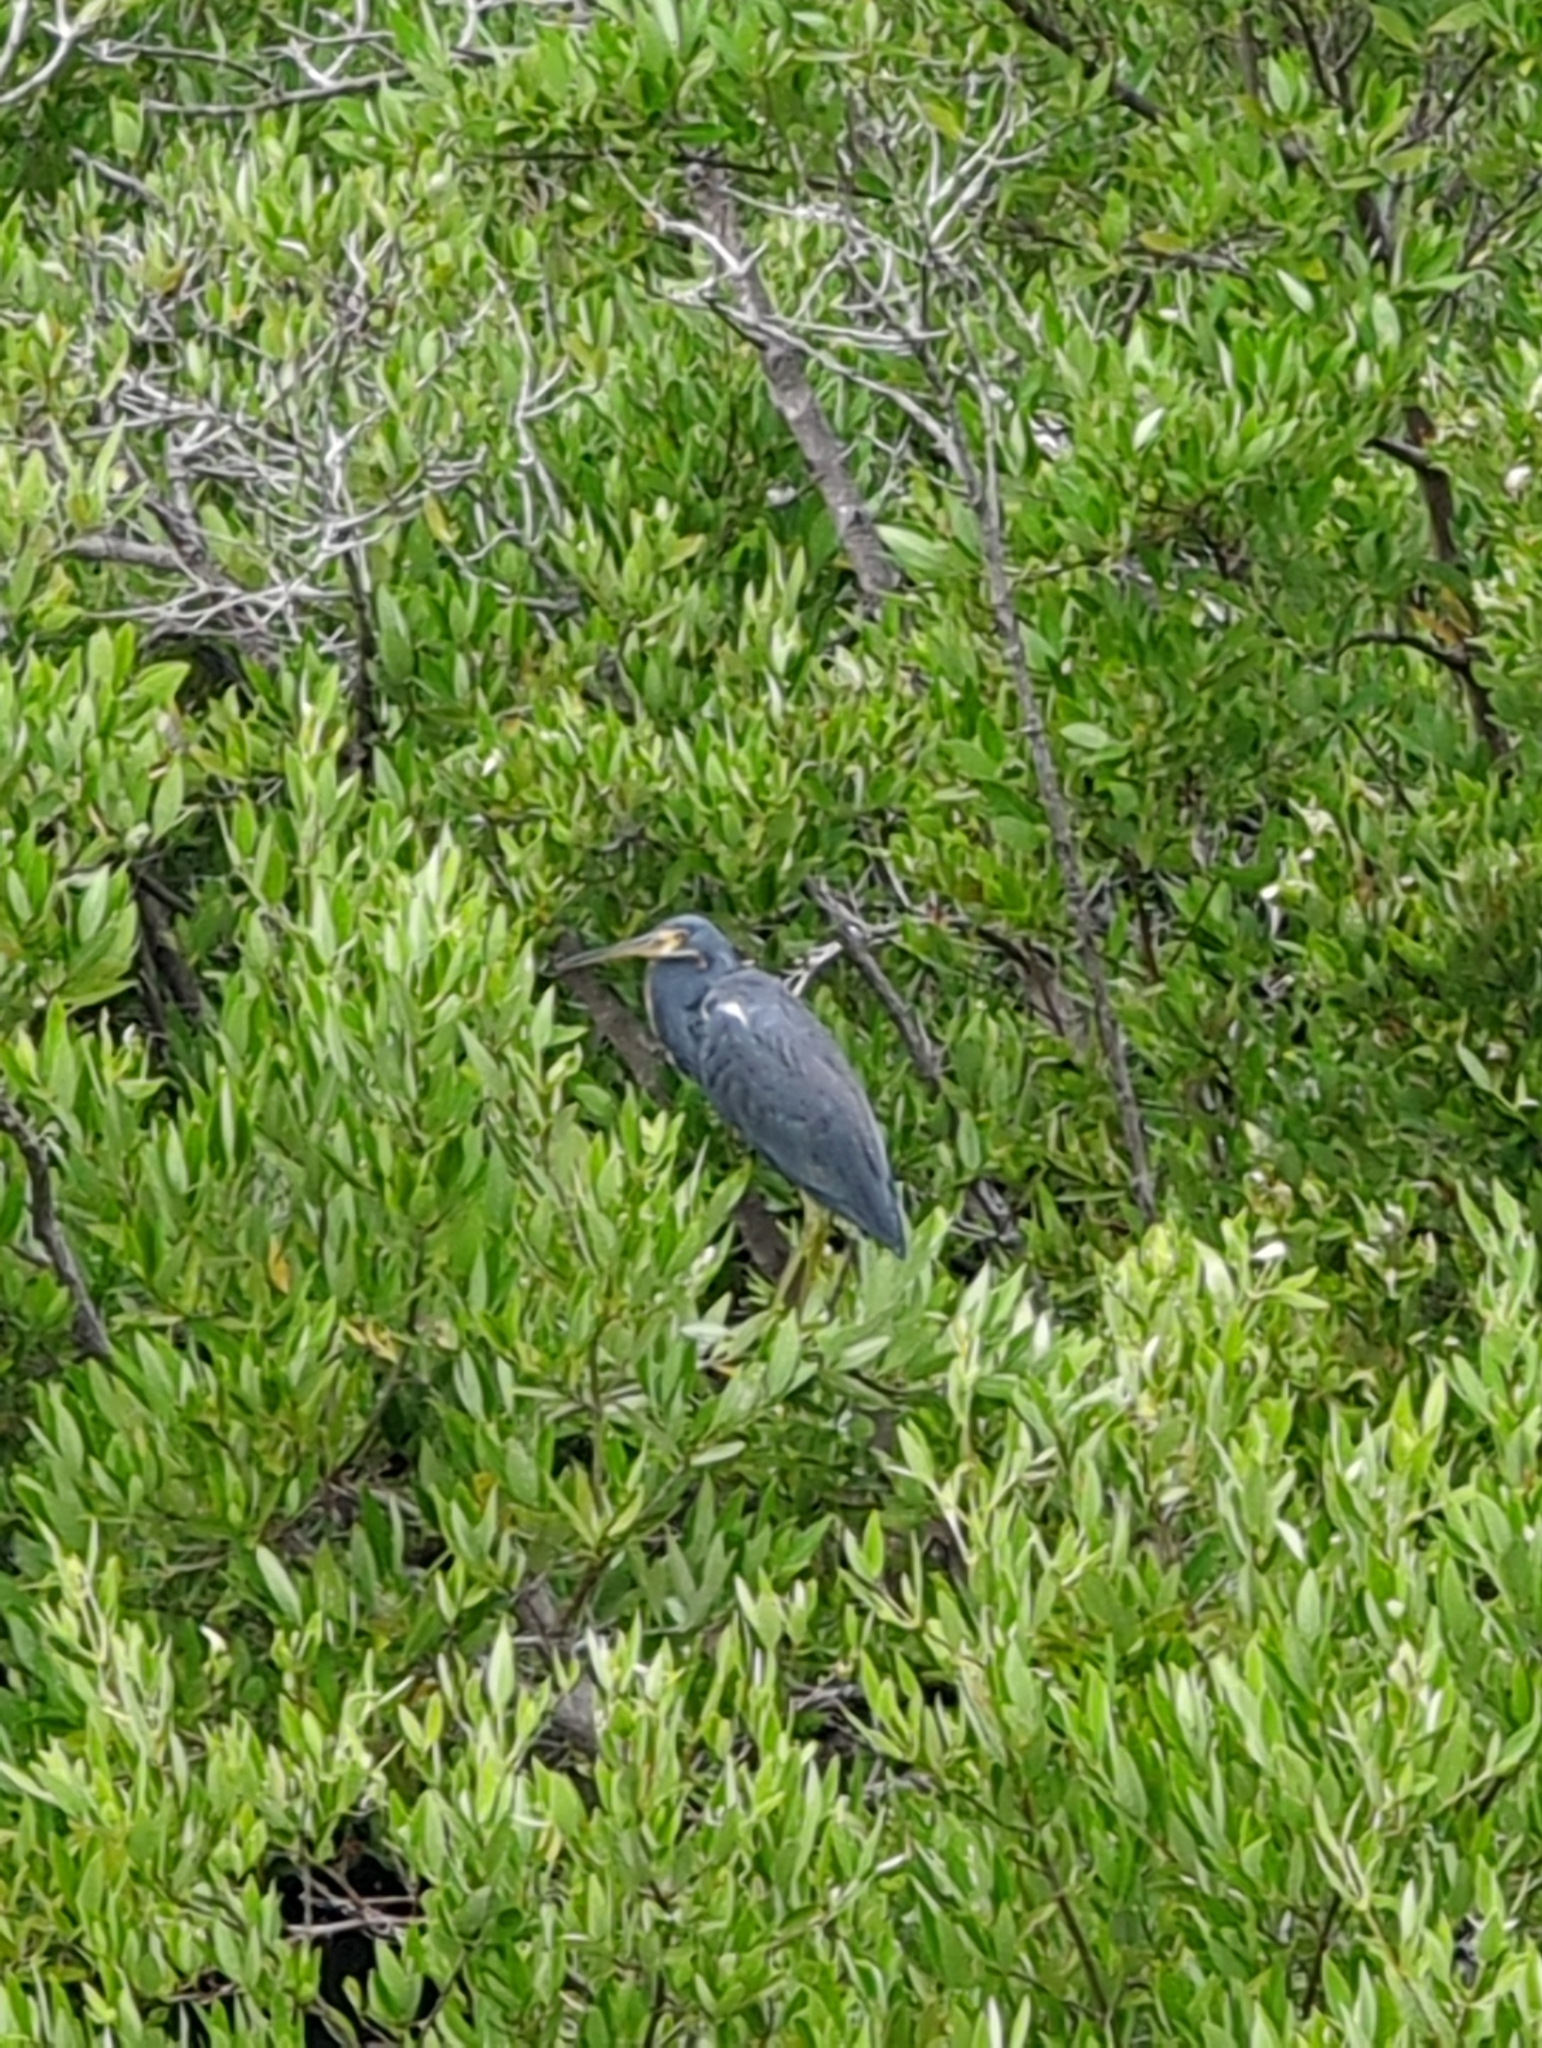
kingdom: Animalia
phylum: Chordata
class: Aves
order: Pelecaniformes
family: Ardeidae
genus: Egretta
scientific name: Egretta tricolor
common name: Tricolored heron
